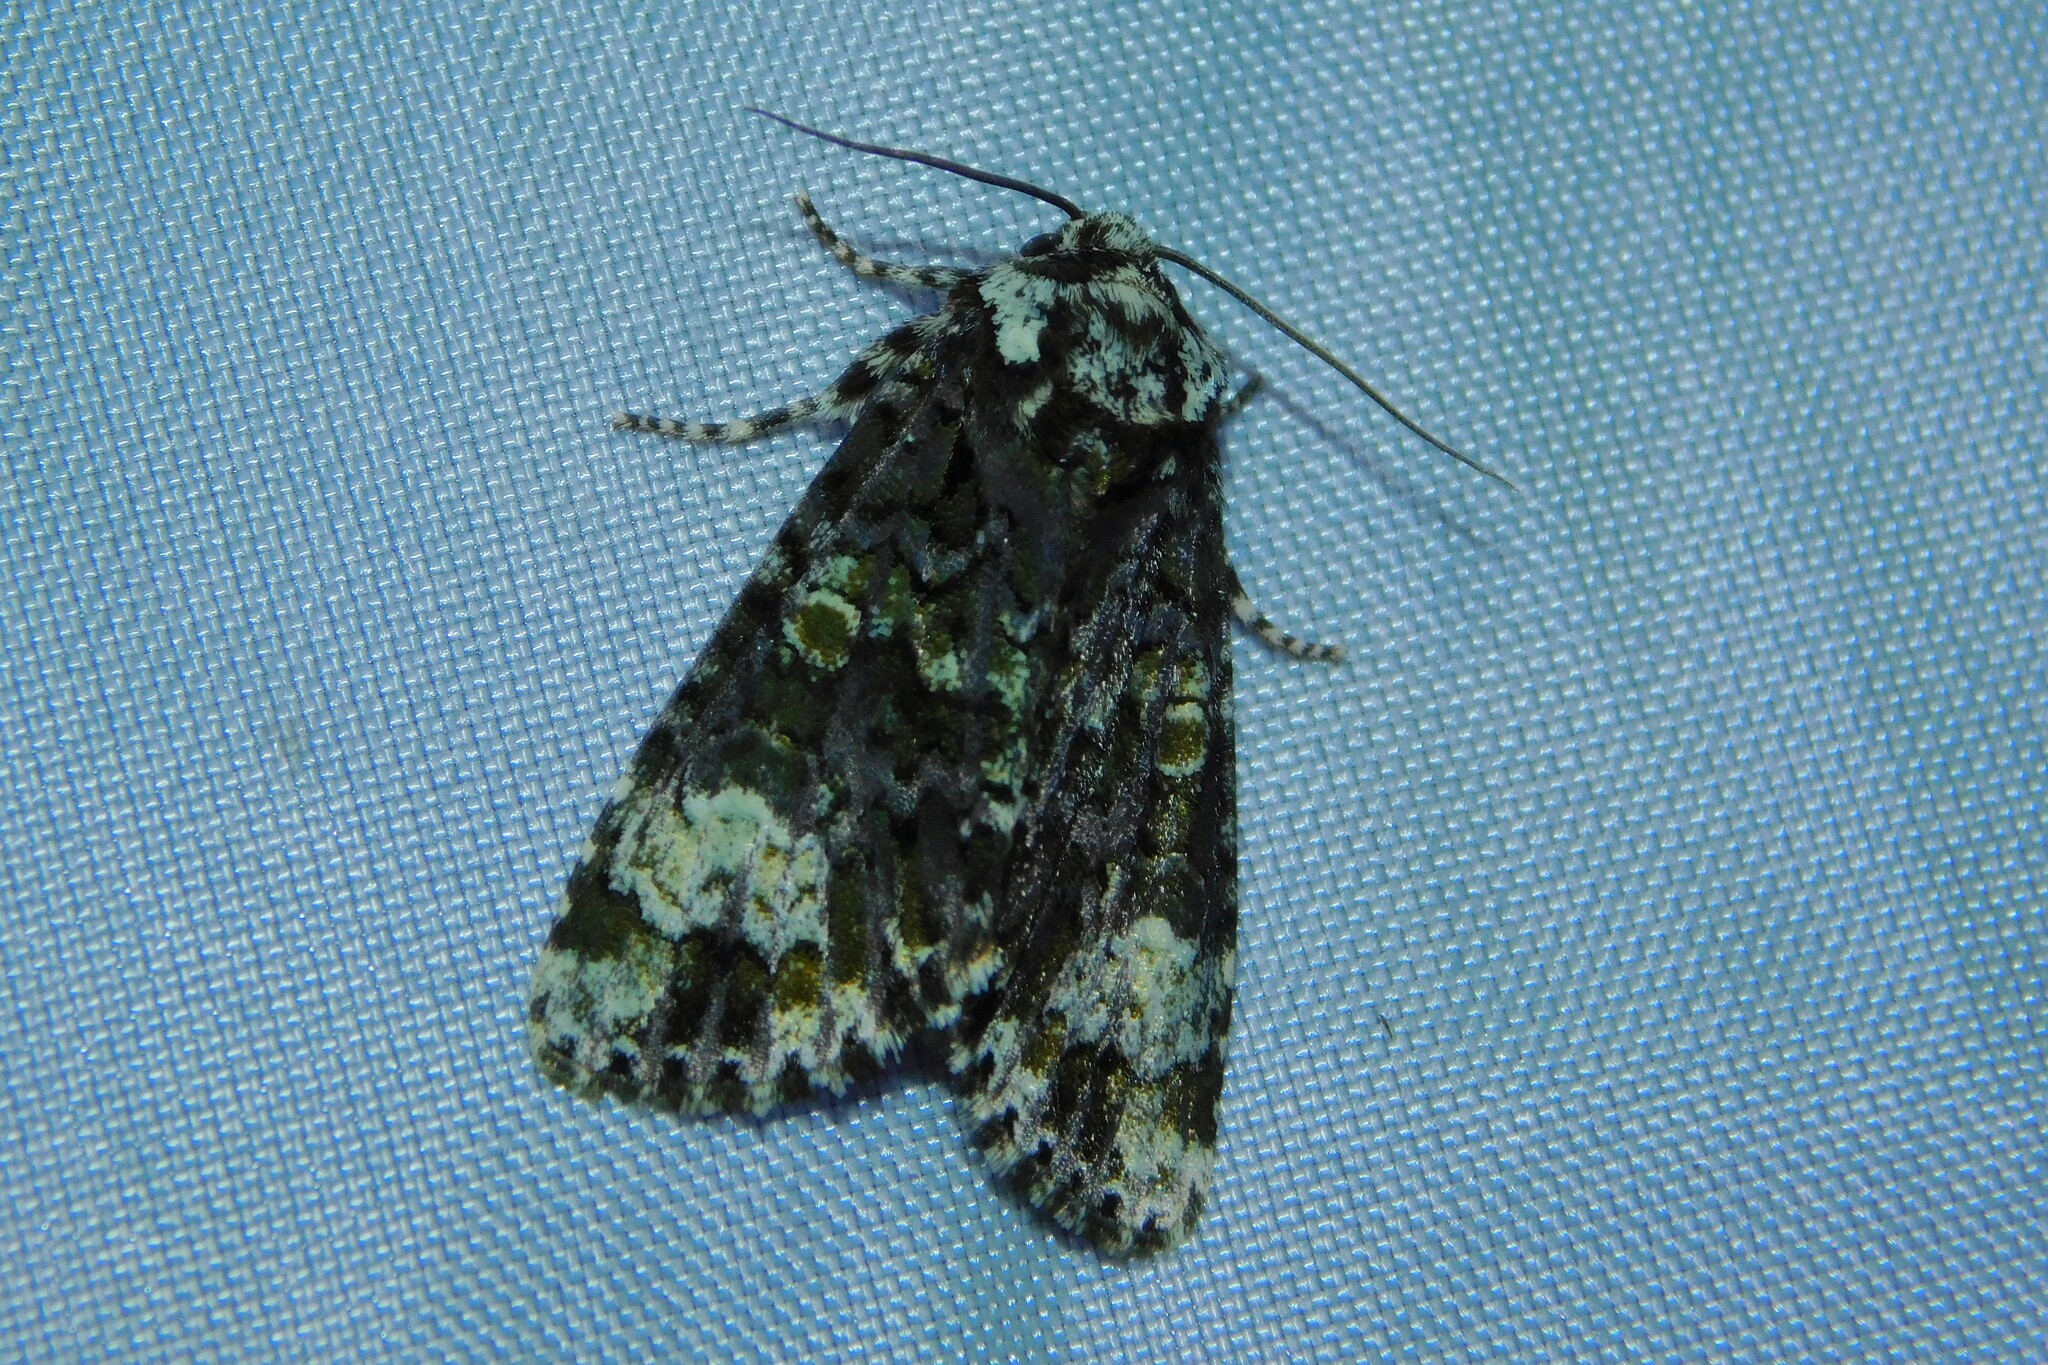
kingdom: Animalia
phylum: Arthropoda
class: Insecta
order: Lepidoptera
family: Noctuidae
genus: Craniophora
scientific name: Craniophora ligustri
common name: Coronet
